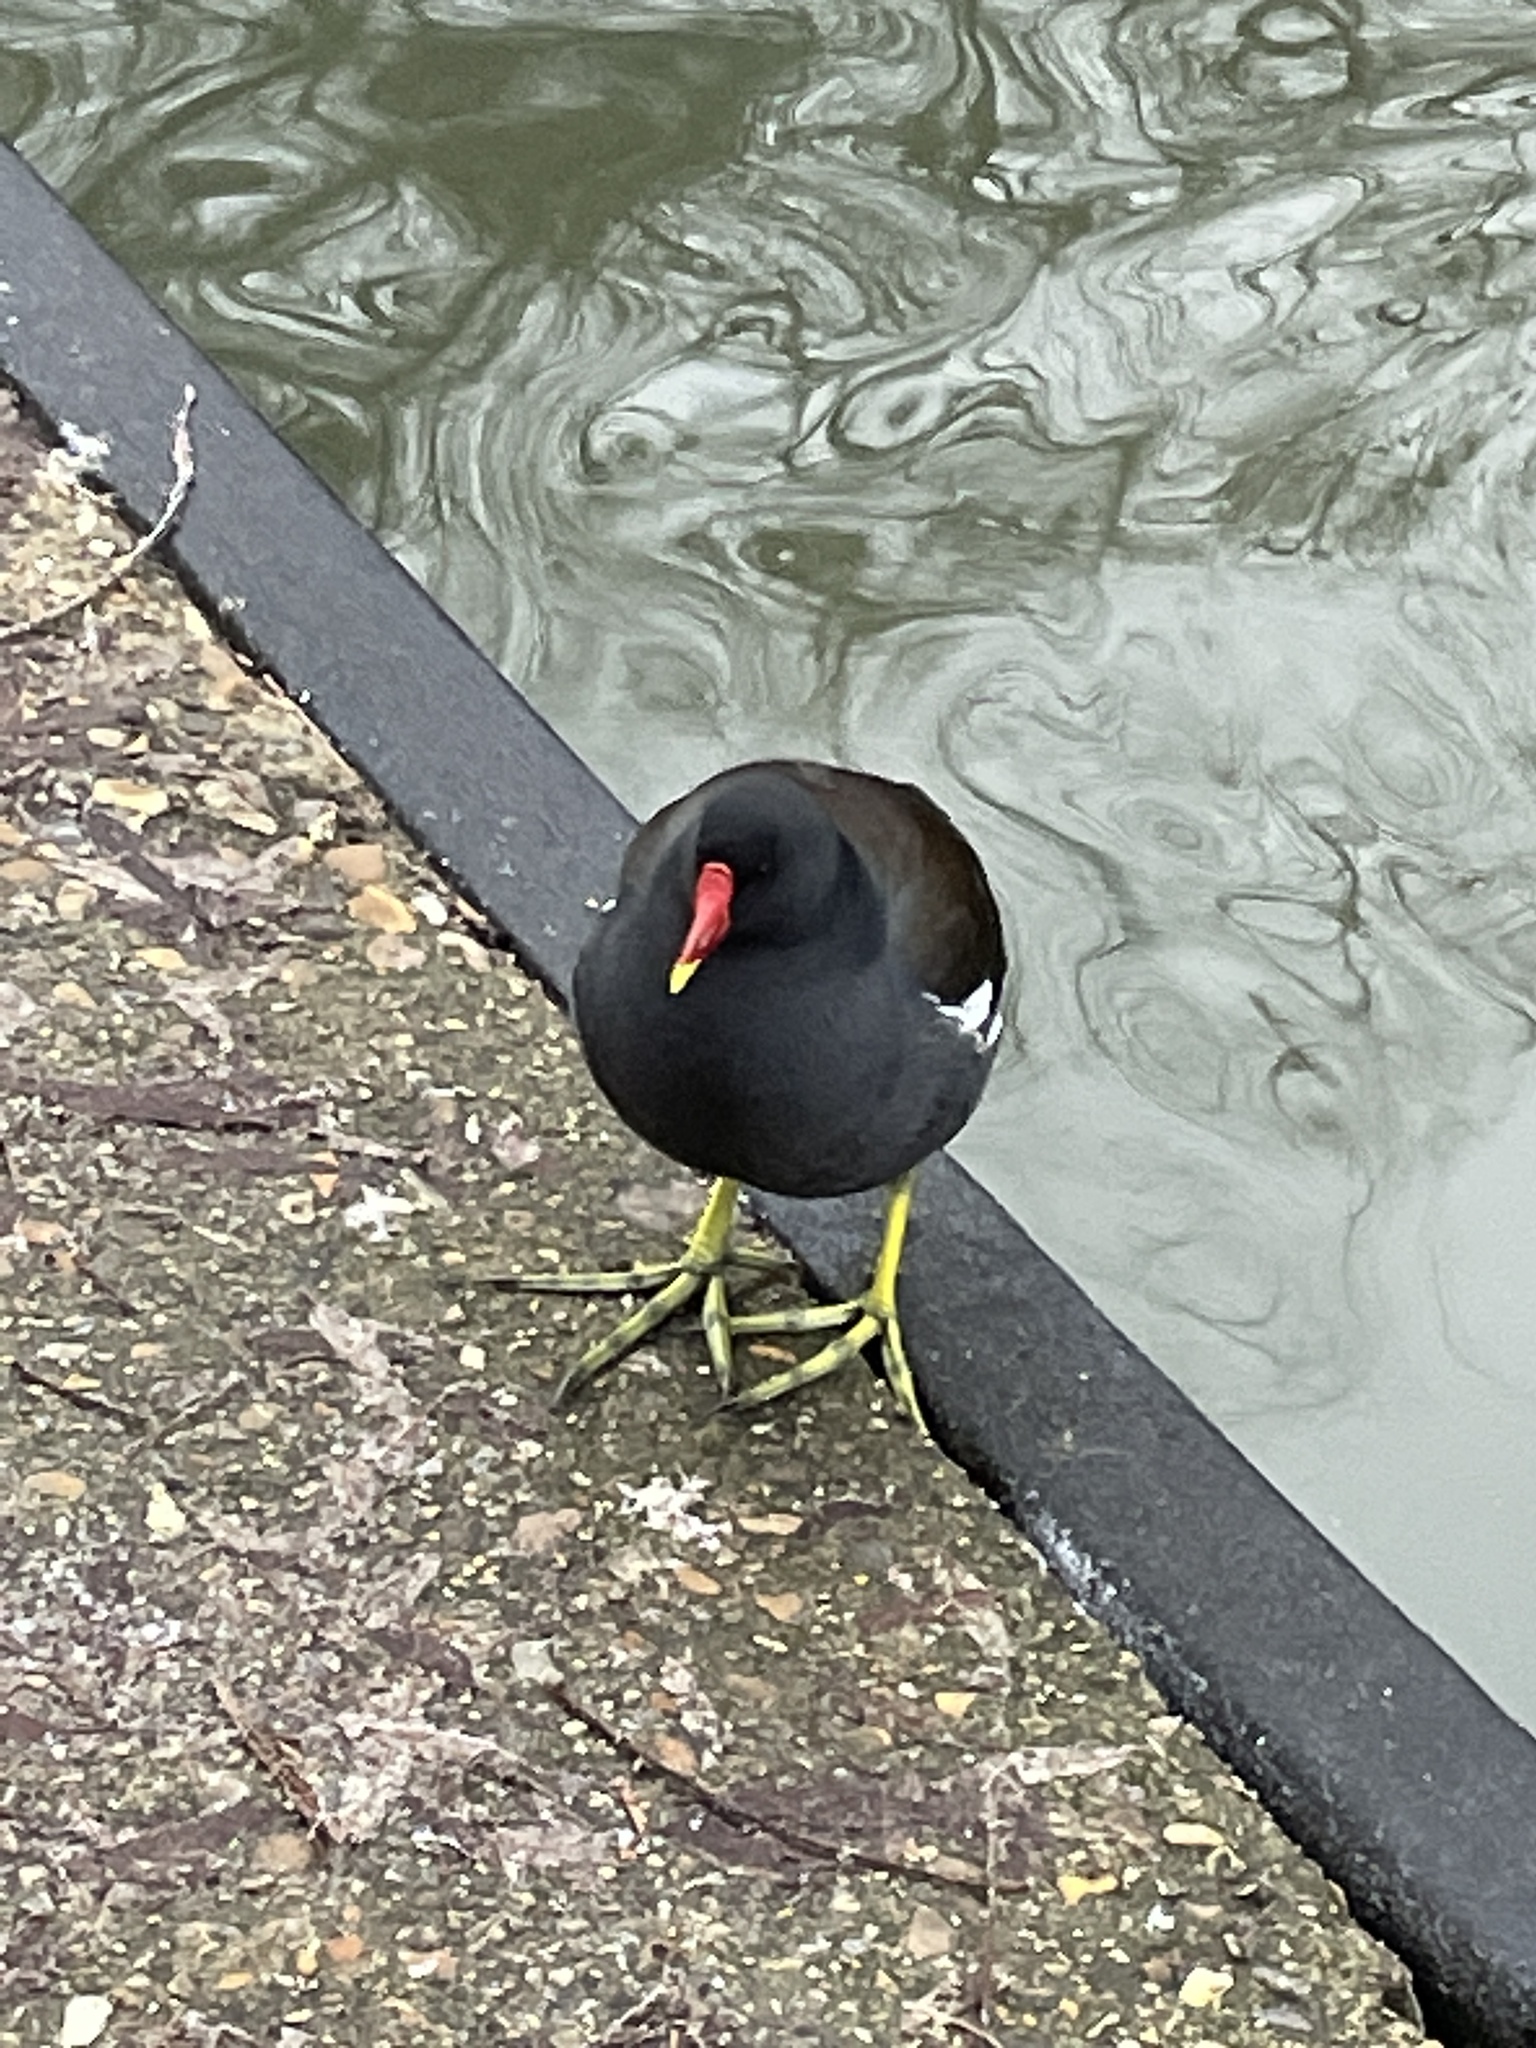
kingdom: Animalia
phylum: Chordata
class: Aves
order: Gruiformes
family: Rallidae
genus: Gallinula
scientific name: Gallinula chloropus
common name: Common moorhen
